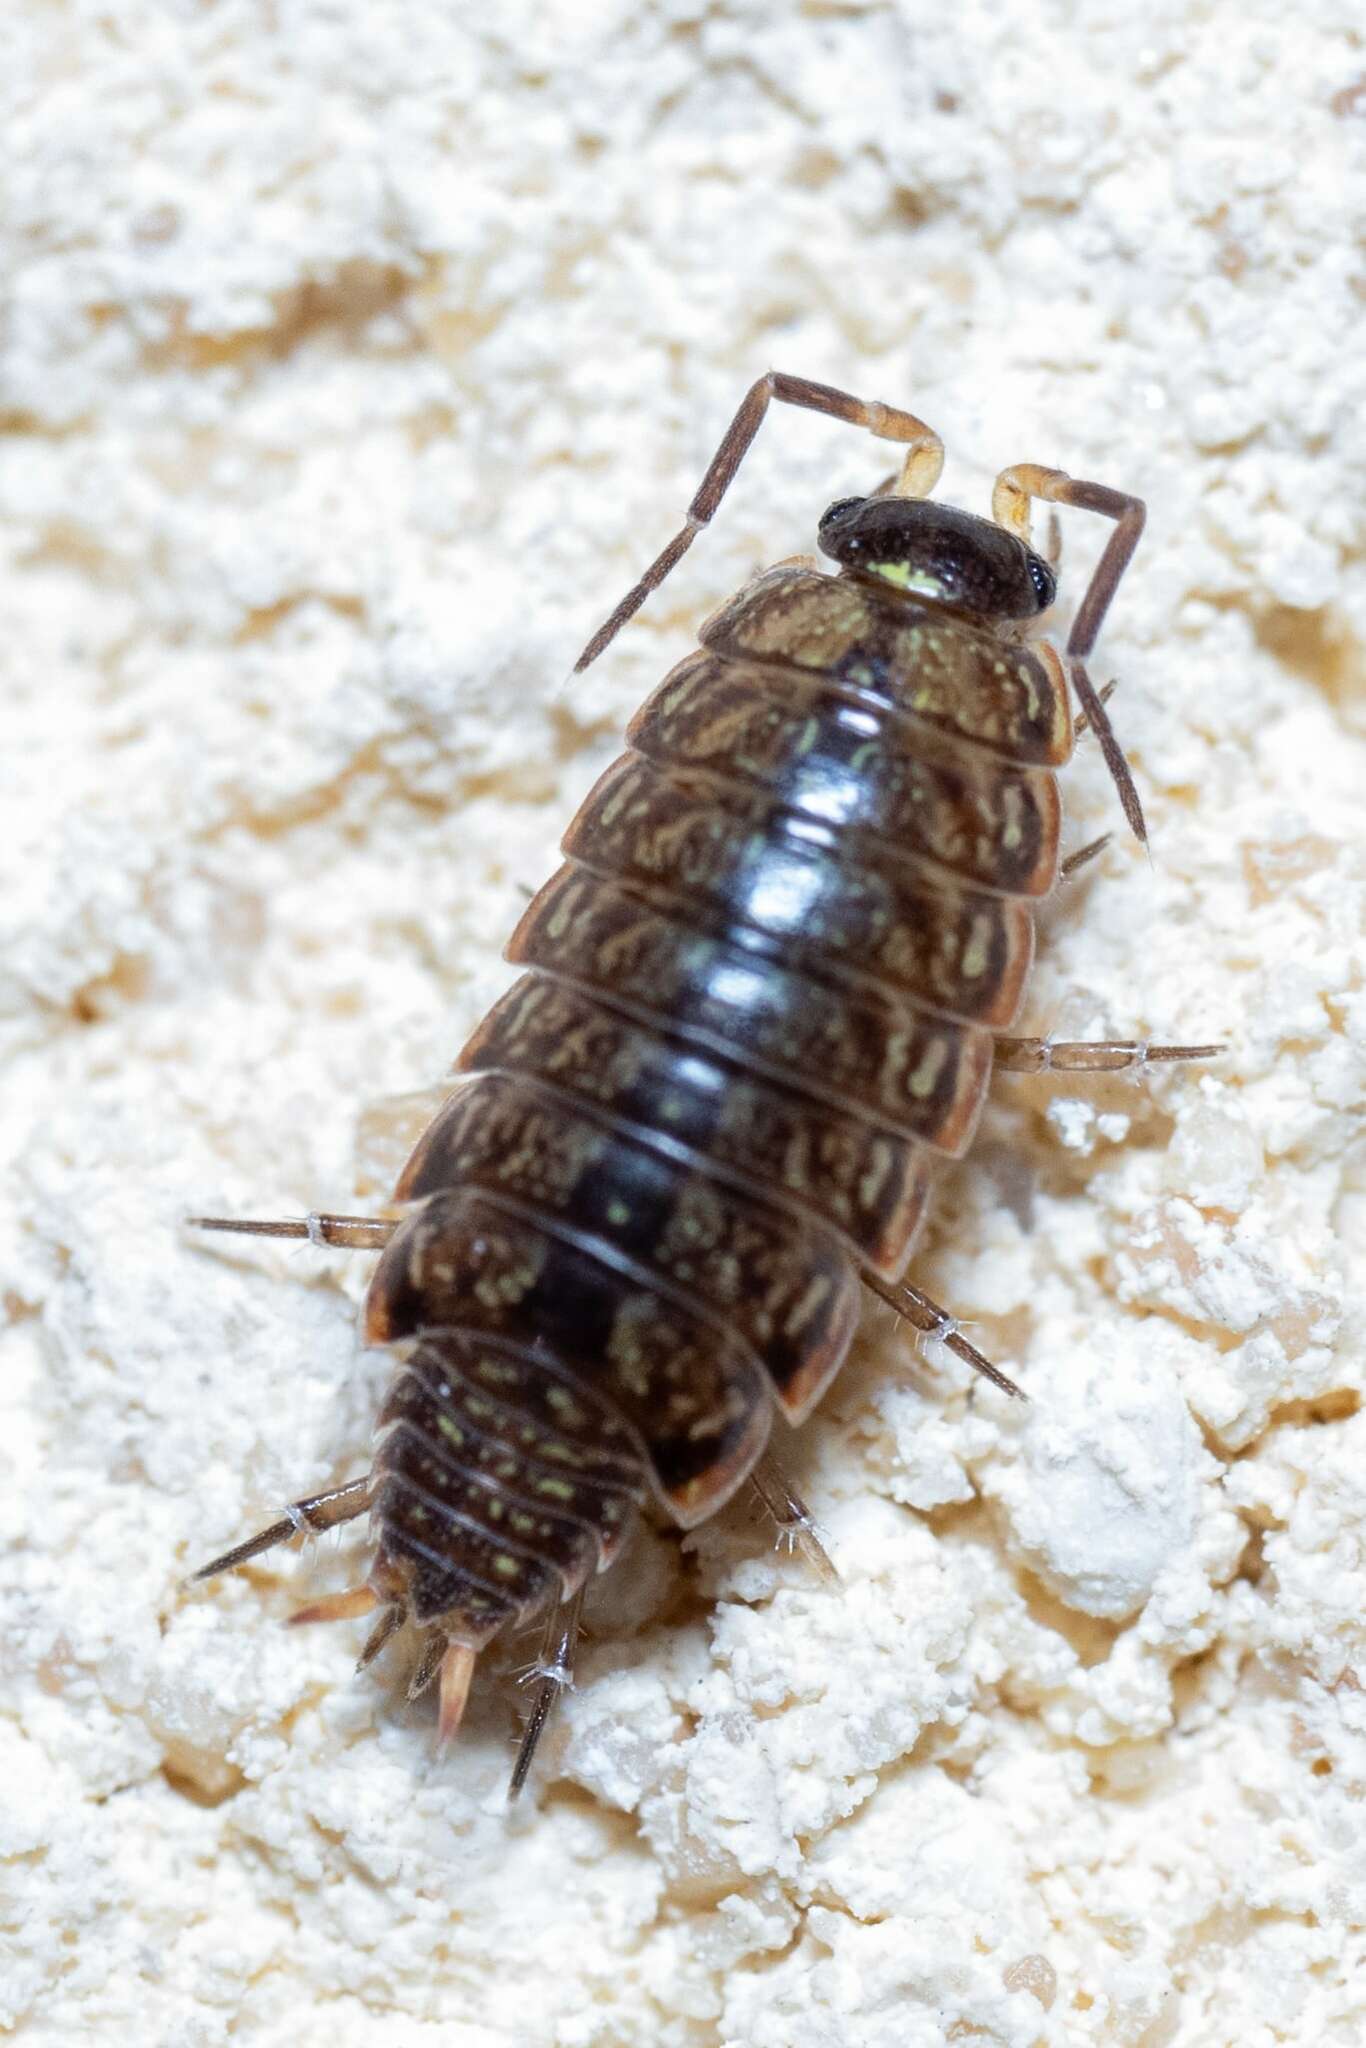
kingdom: Animalia
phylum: Arthropoda
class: Malacostraca
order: Isopoda
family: Philosciidae
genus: Philoscia
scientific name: Philoscia muscorum
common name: Common striped woodlouse
